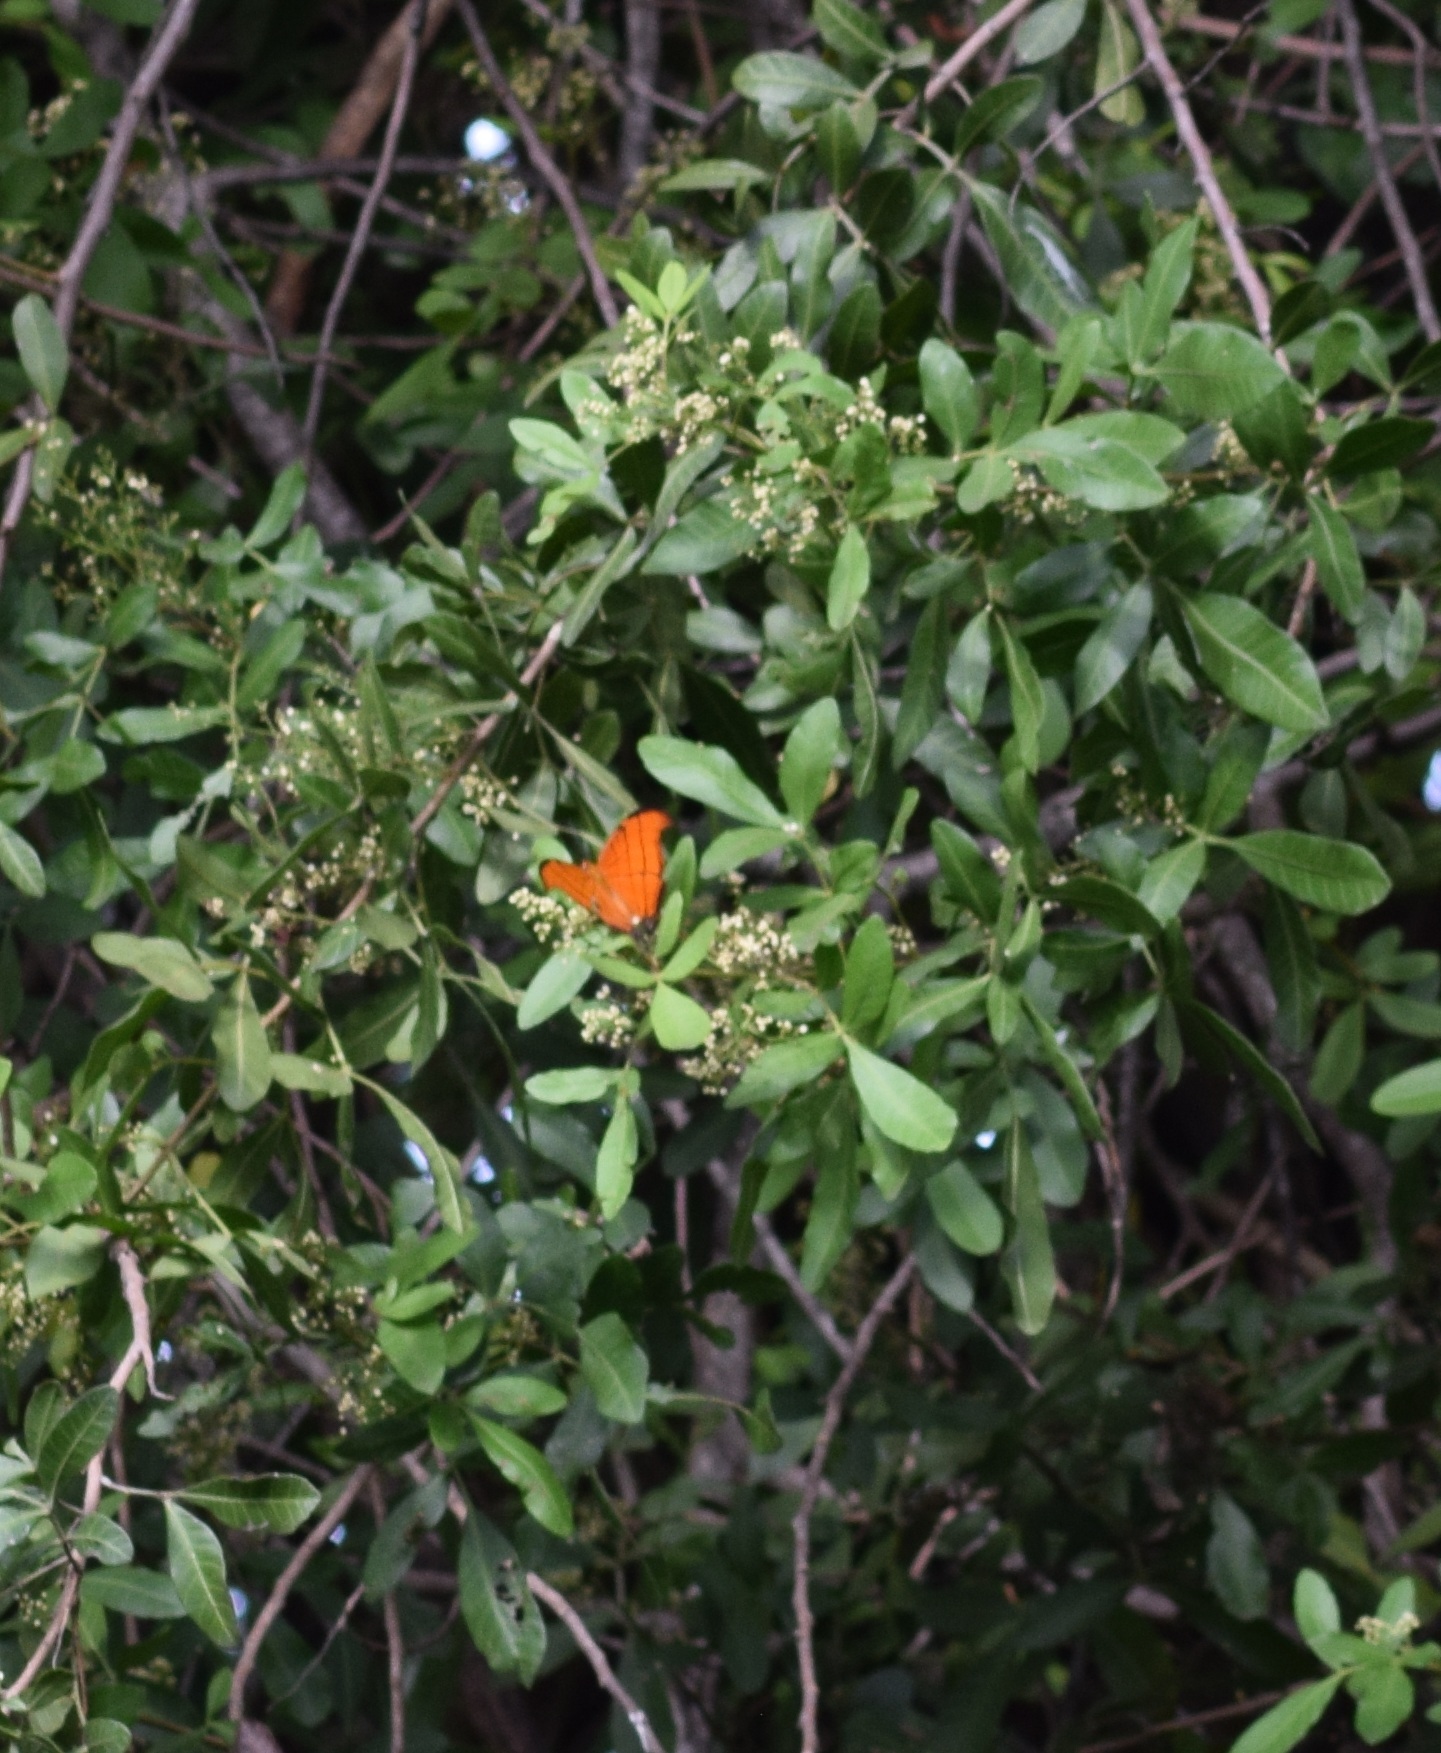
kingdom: Animalia
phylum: Arthropoda
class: Insecta
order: Lepidoptera
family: Nymphalidae
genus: Marpesia
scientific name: Marpesia petreus
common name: Red dagger wing
